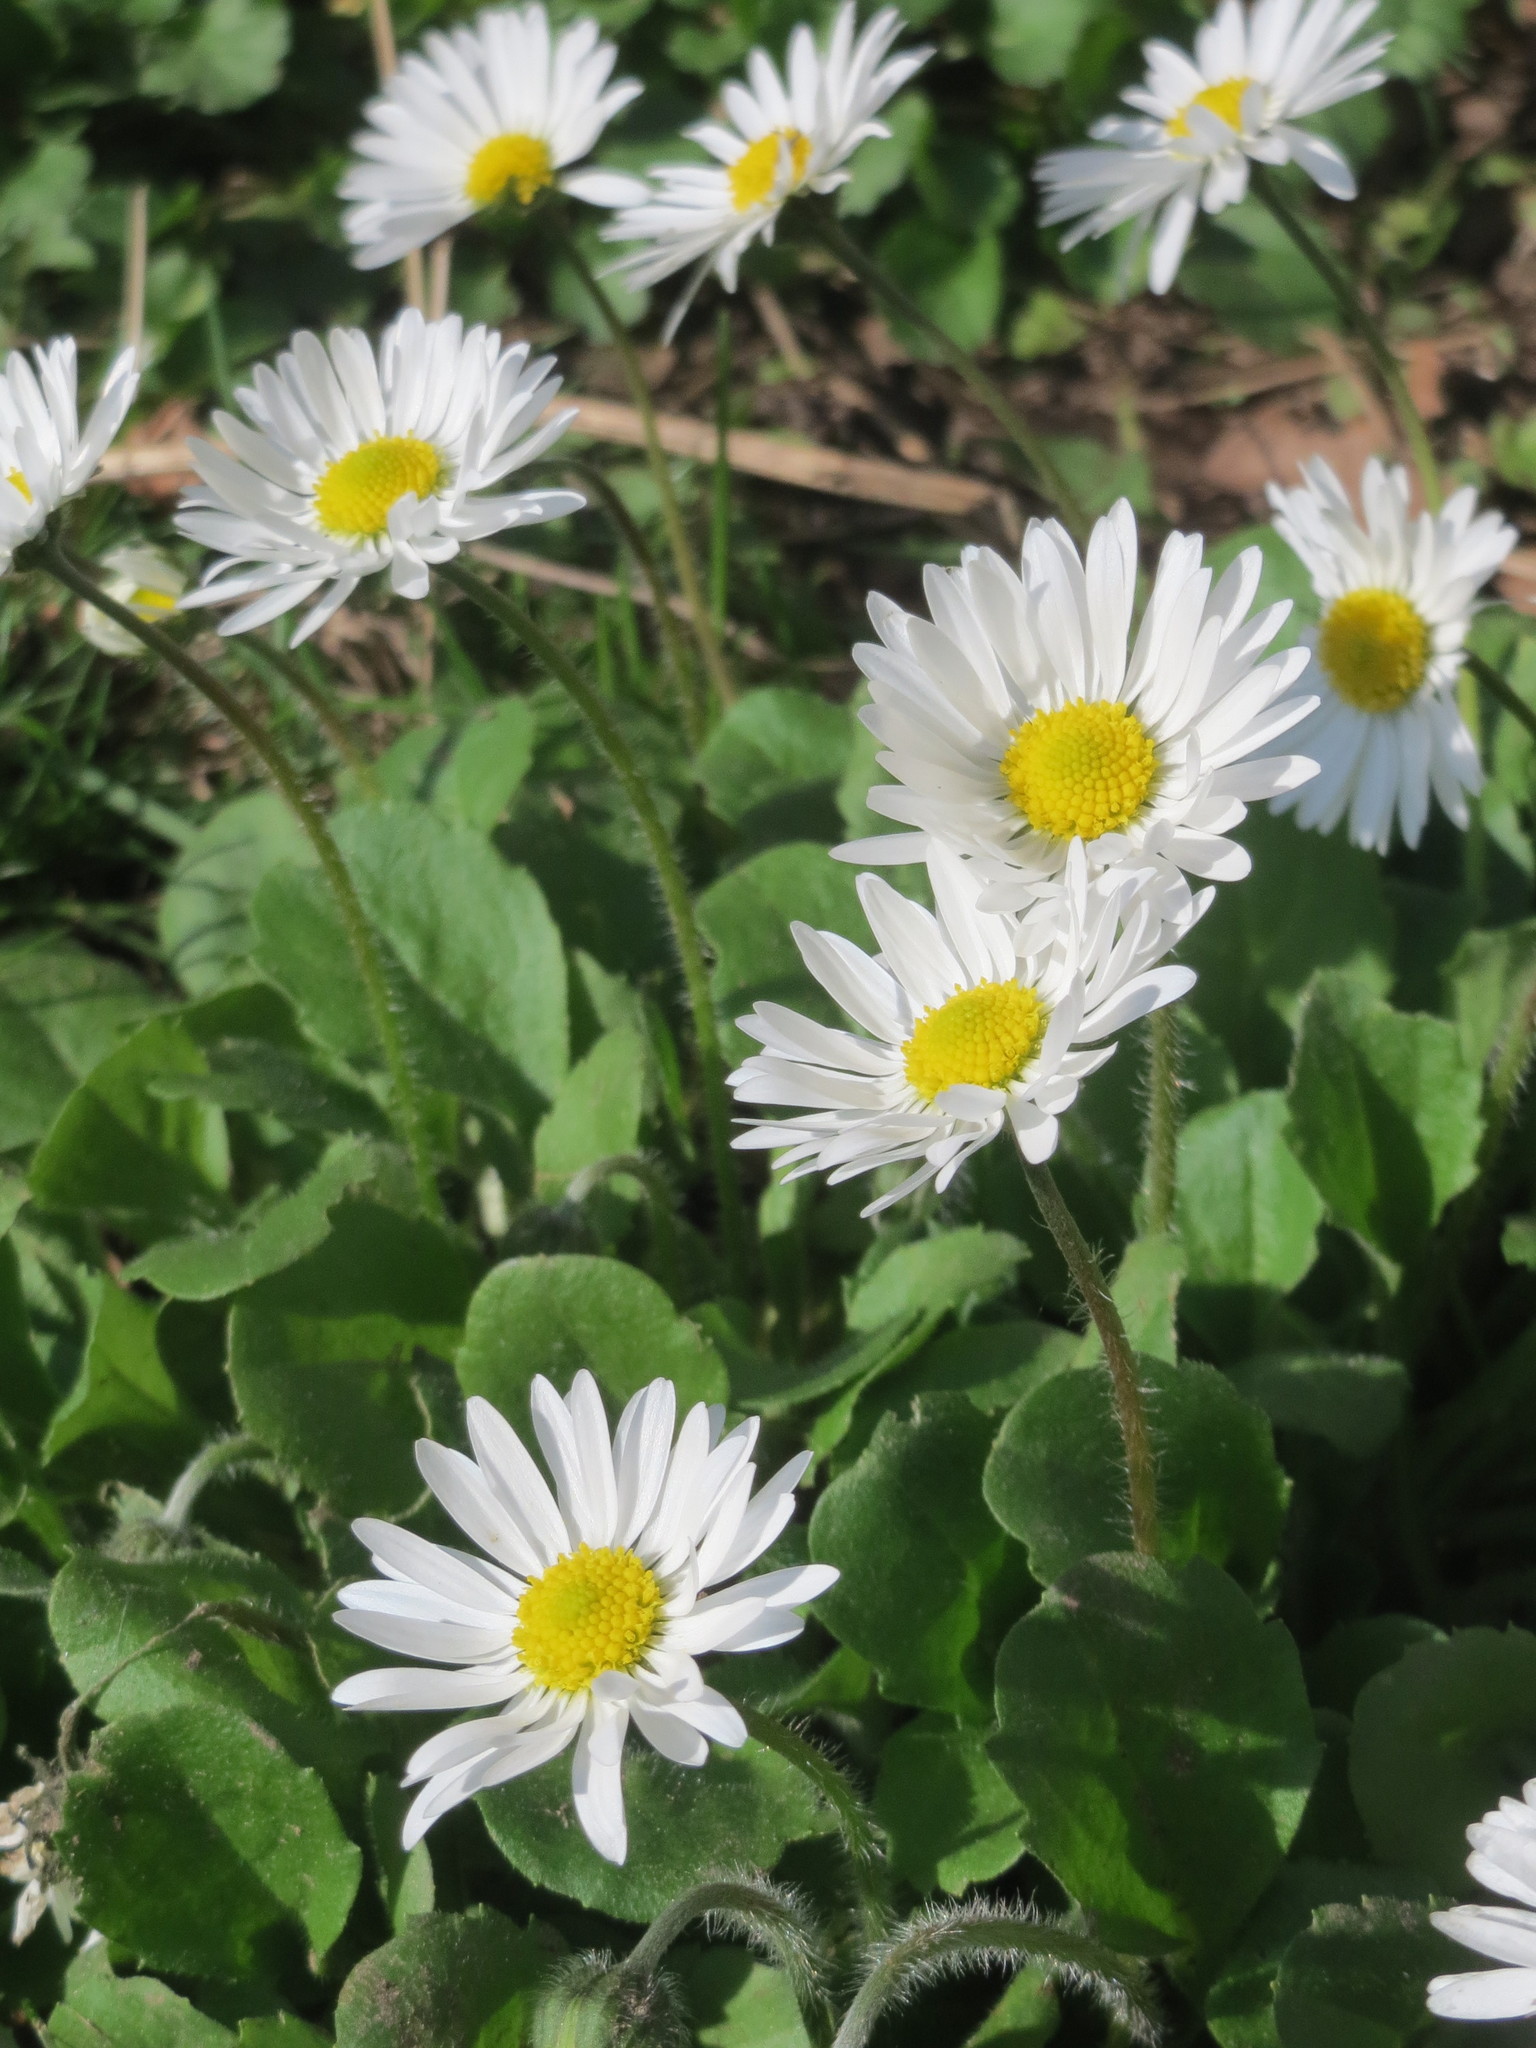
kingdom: Plantae
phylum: Tracheophyta
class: Magnoliopsida
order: Asterales
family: Asteraceae
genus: Bellis
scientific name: Bellis perennis
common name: Lawndaisy
